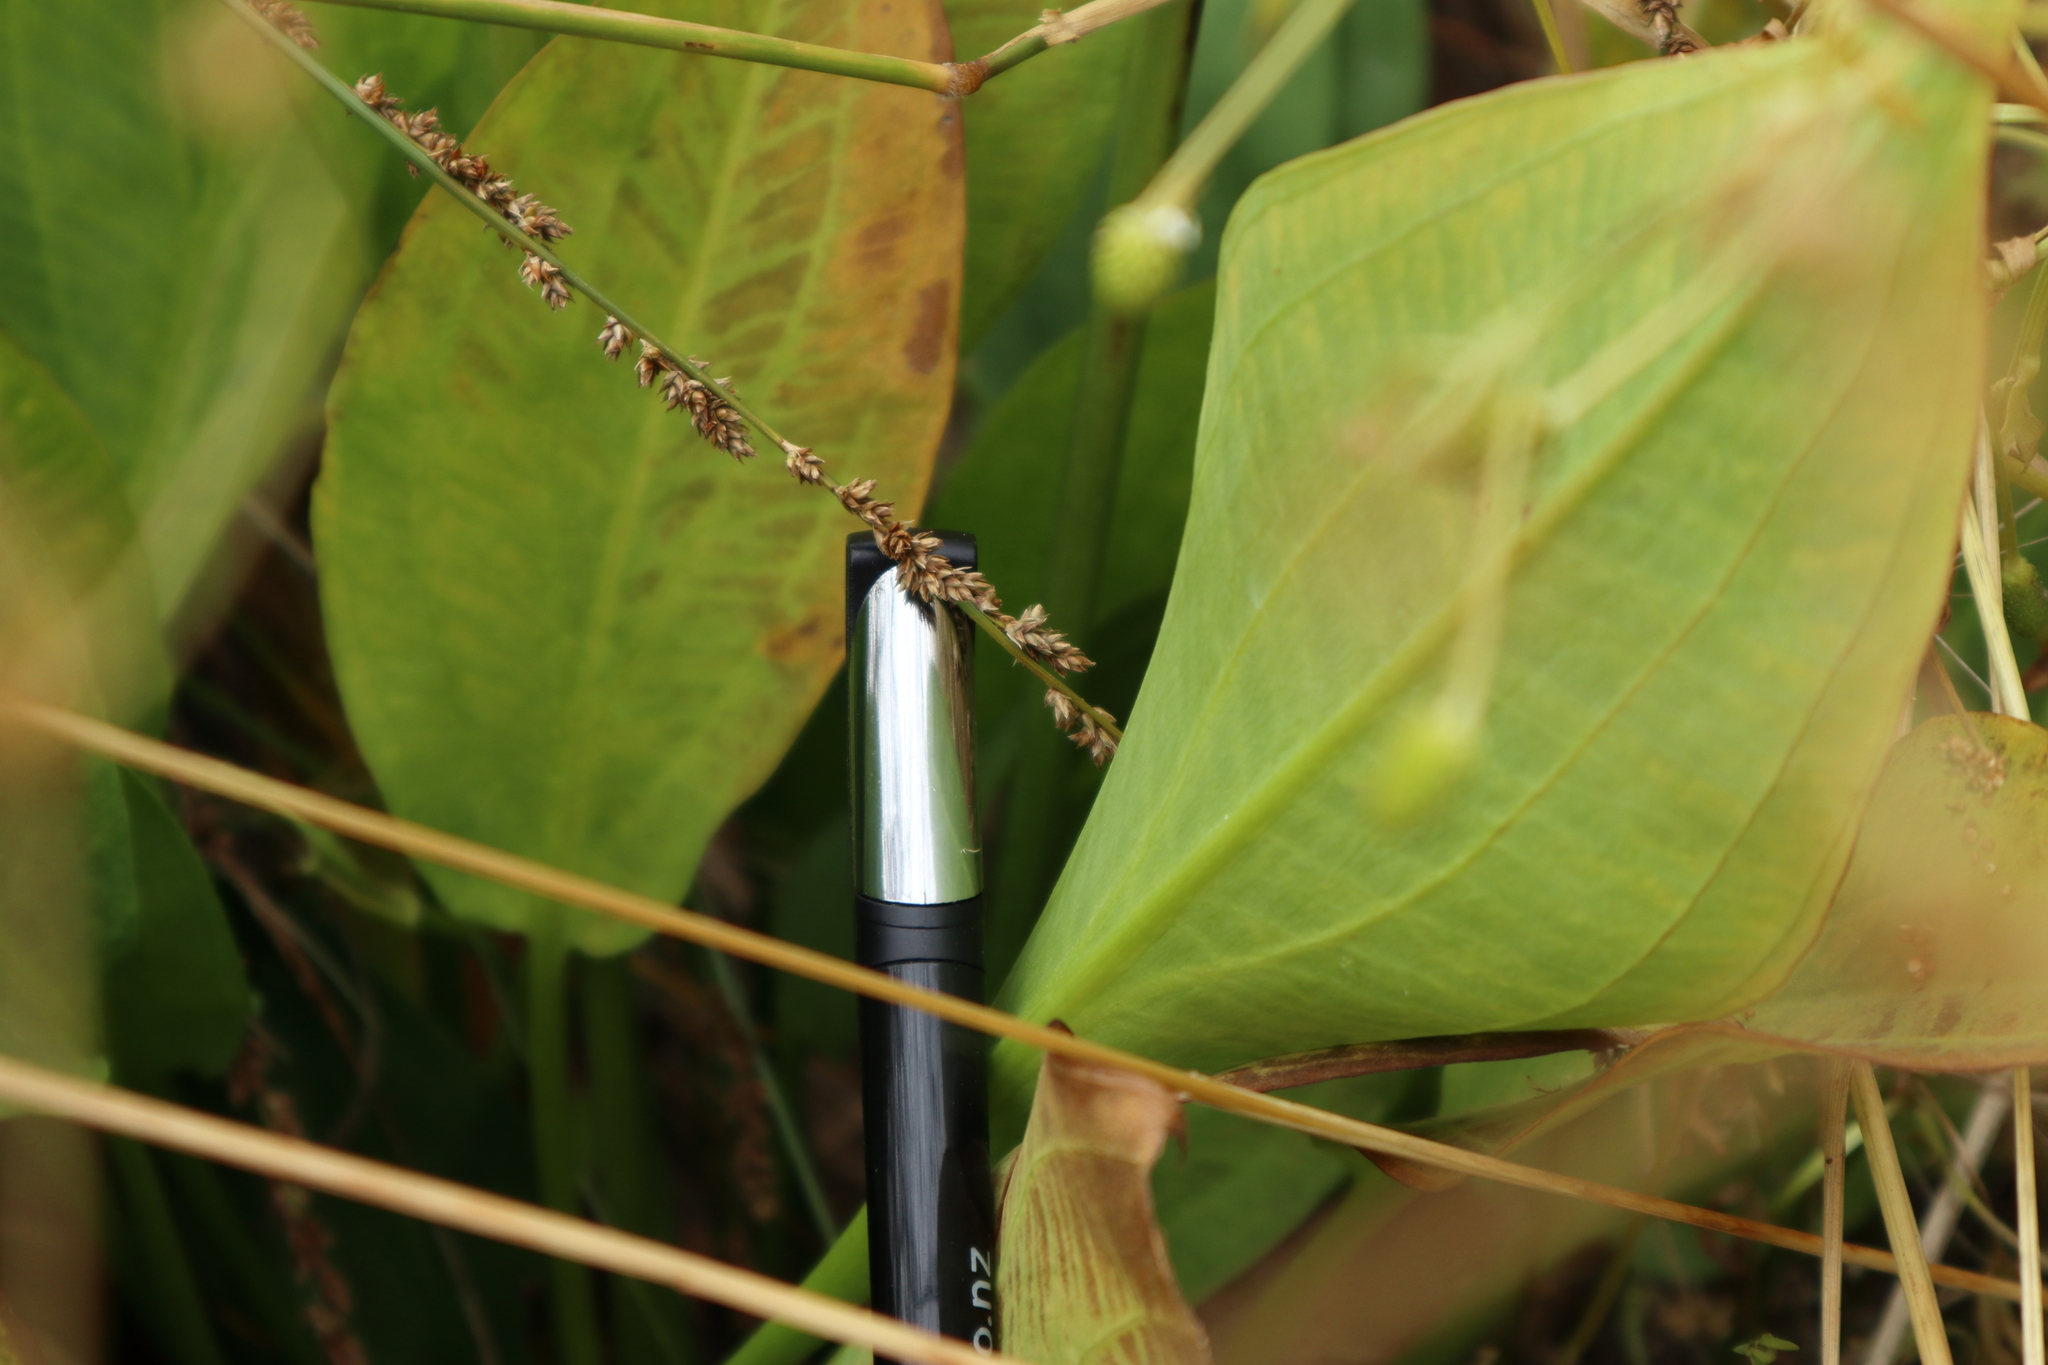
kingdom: Plantae
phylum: Tracheophyta
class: Liliopsida
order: Alismatales
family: Alismataceae
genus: Alisma
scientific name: Alisma plantago-aquatica
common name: Water-plantain
